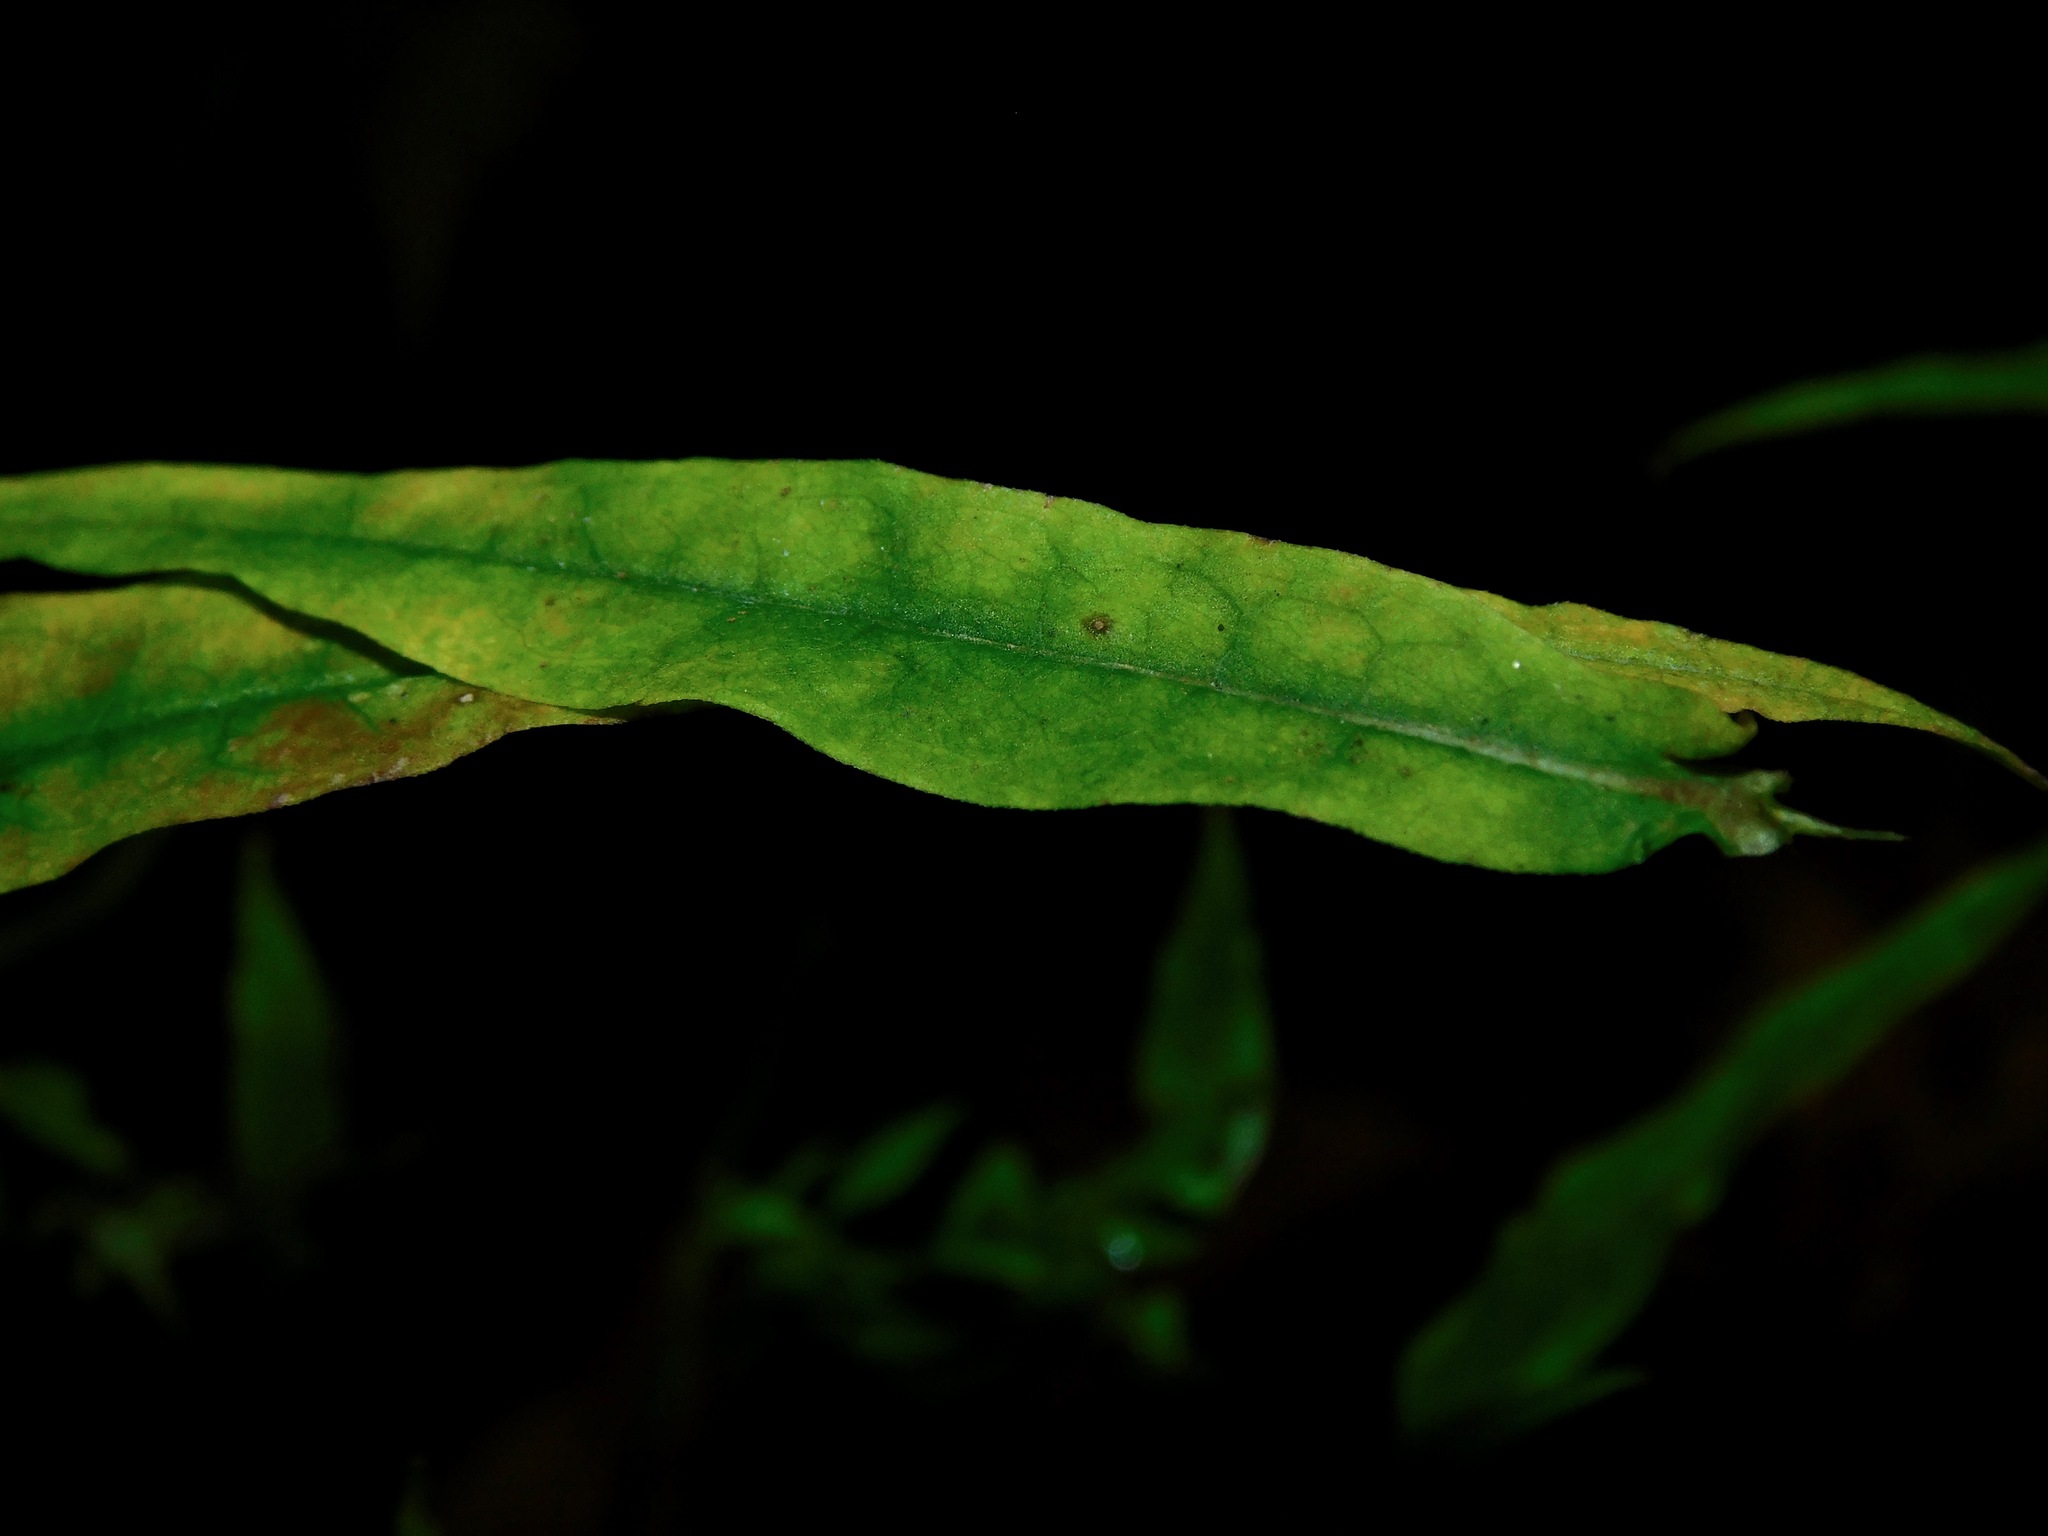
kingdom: Plantae
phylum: Tracheophyta
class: Magnoliopsida
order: Asterales
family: Asteraceae
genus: Symphyotrichum
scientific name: Symphyotrichum lateriflorum
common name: Calico aster
